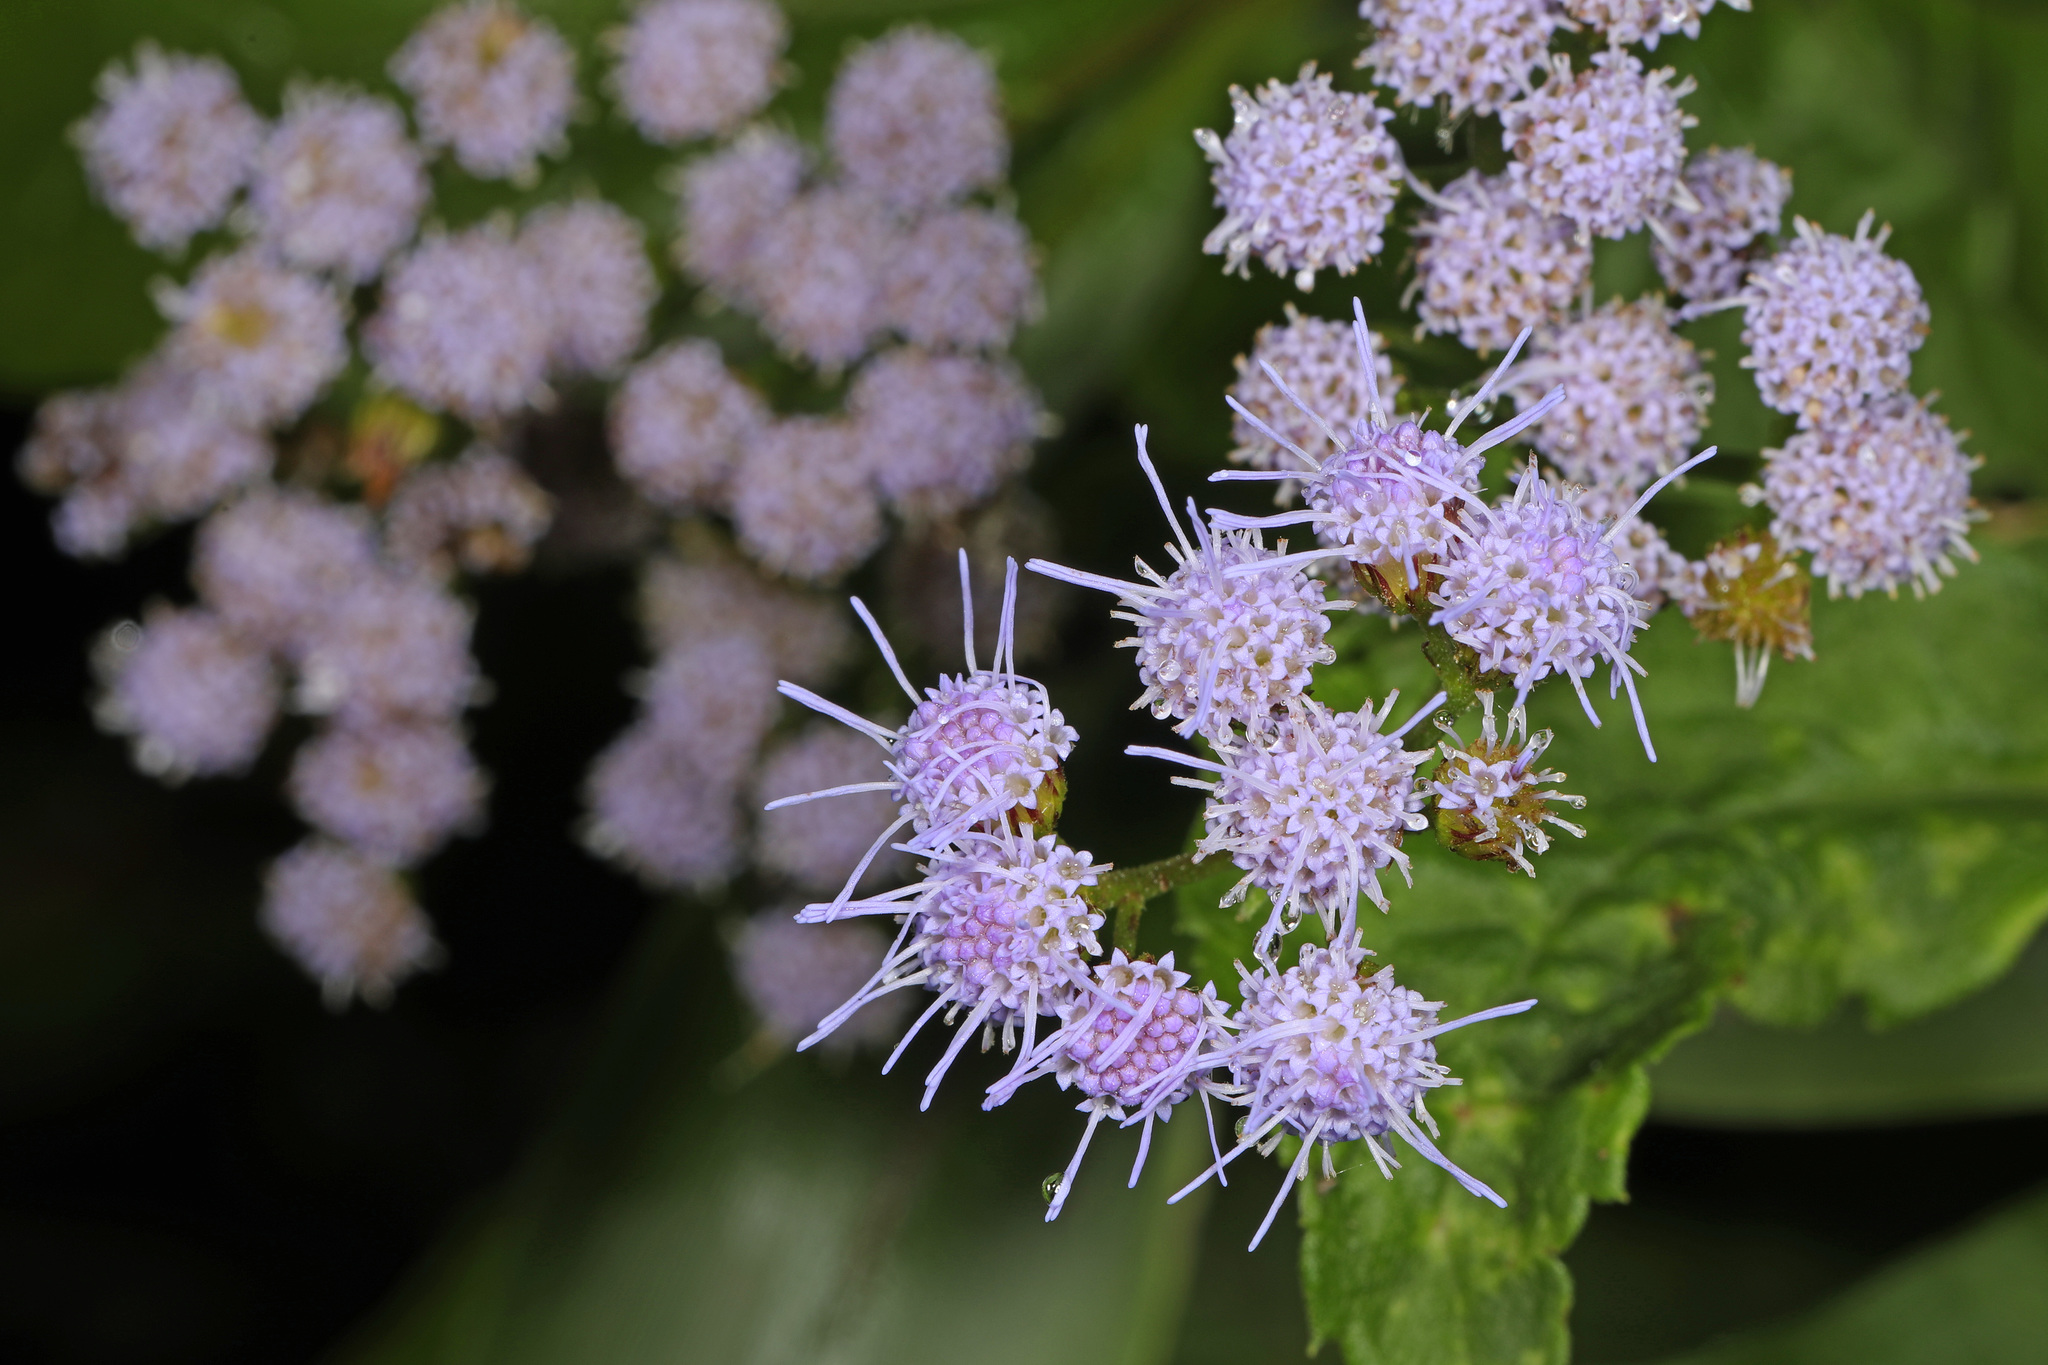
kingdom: Plantae
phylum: Tracheophyta
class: Magnoliopsida
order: Asterales
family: Asteraceae
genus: Conoclinium
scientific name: Conoclinium coelestinum
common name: Blue mistflower
